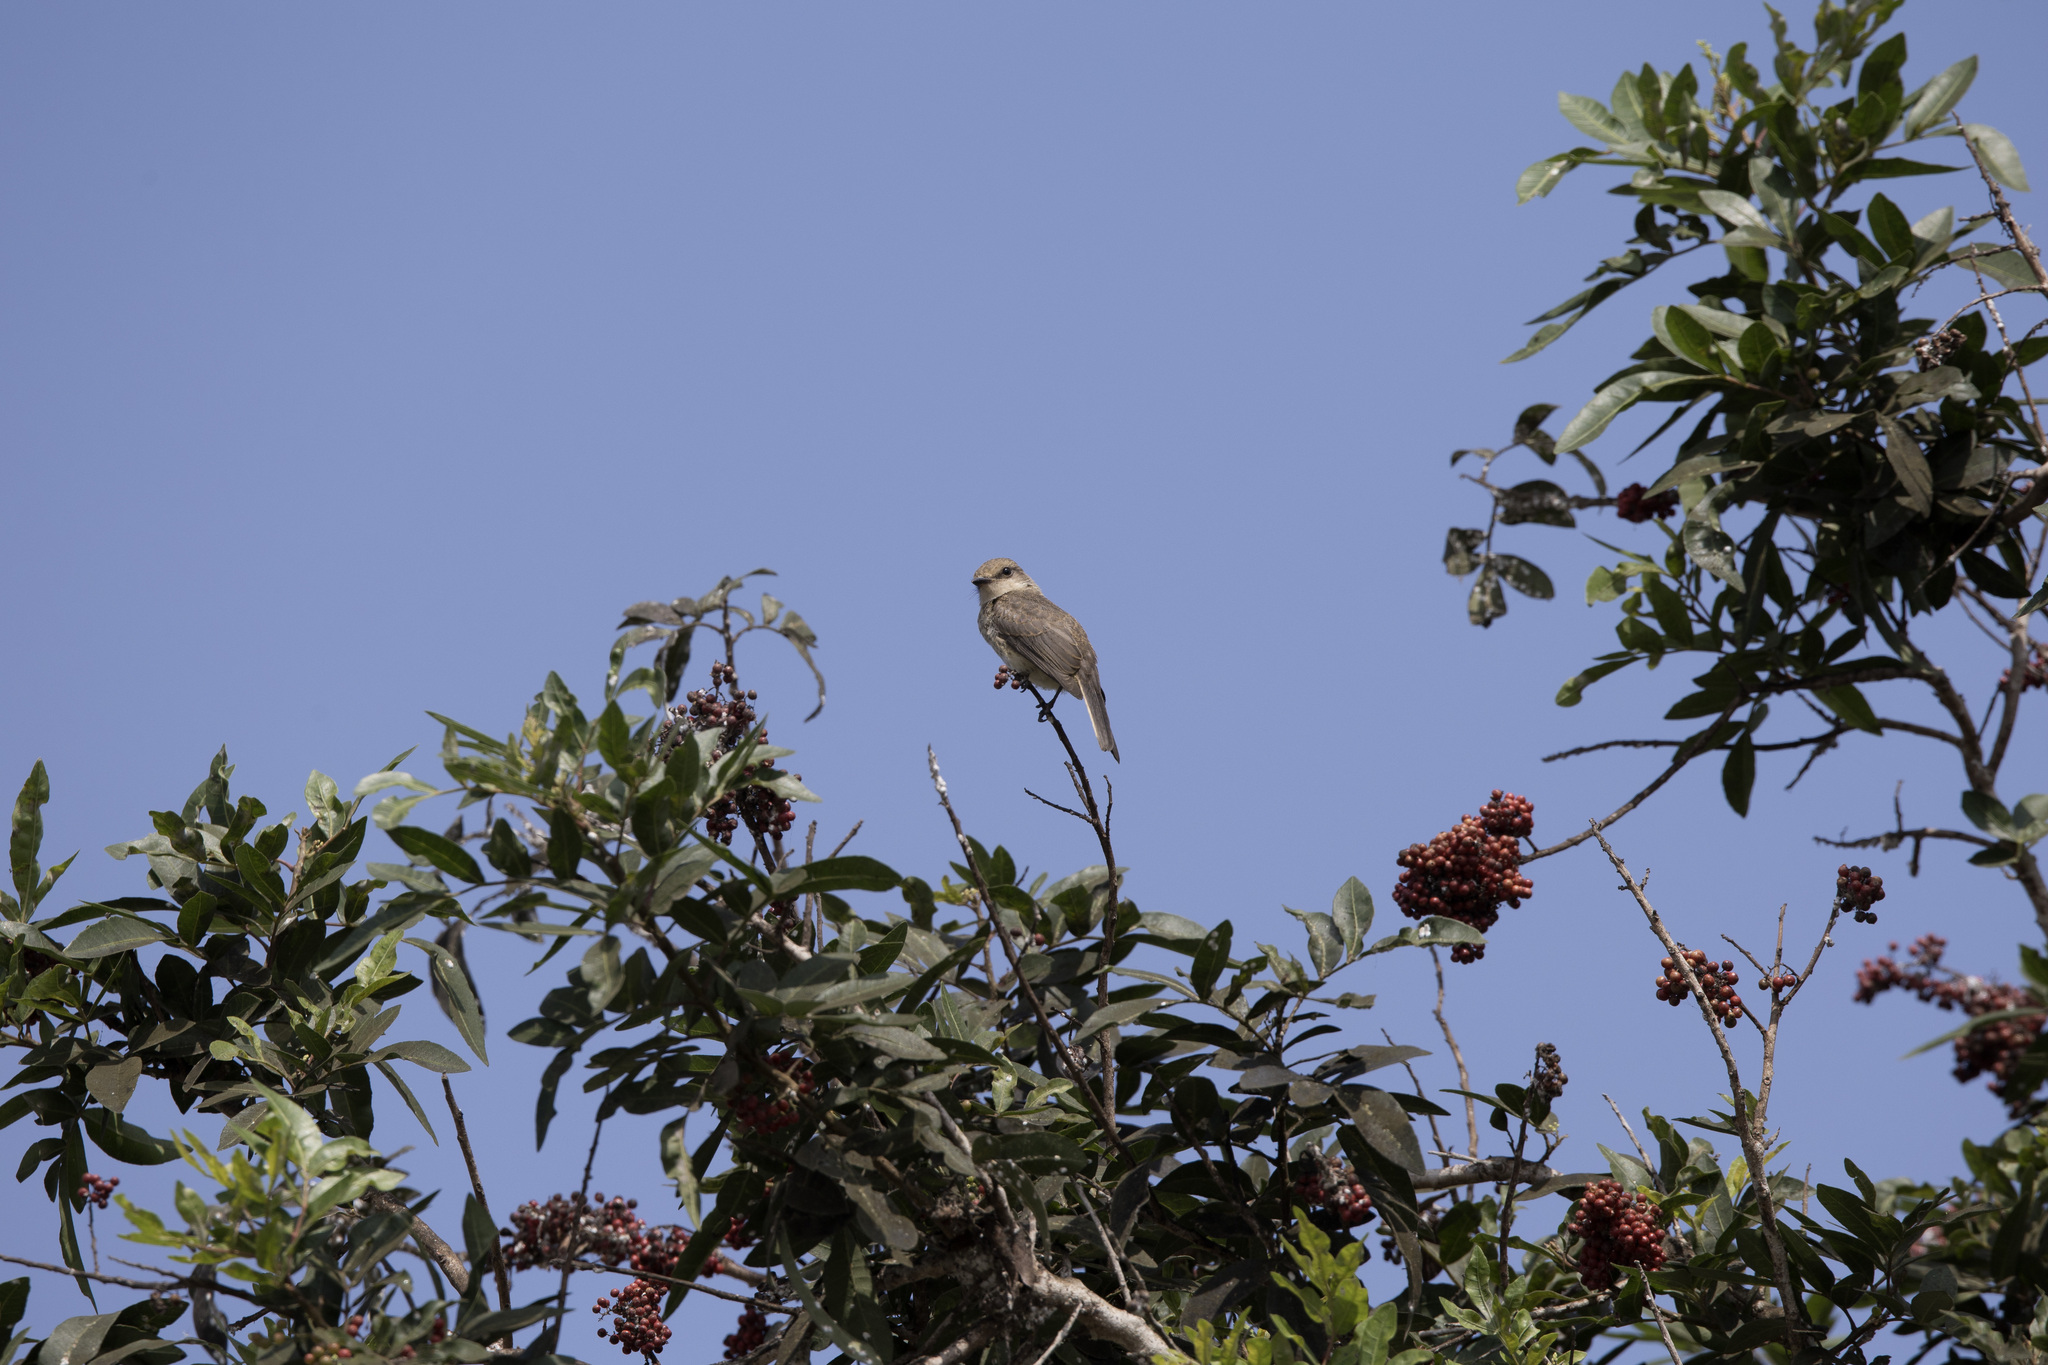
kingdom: Animalia
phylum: Chordata
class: Aves
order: Passeriformes
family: Tyrannidae
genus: Pyrocephalus
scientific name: Pyrocephalus rubinus
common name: Vermilion flycatcher
